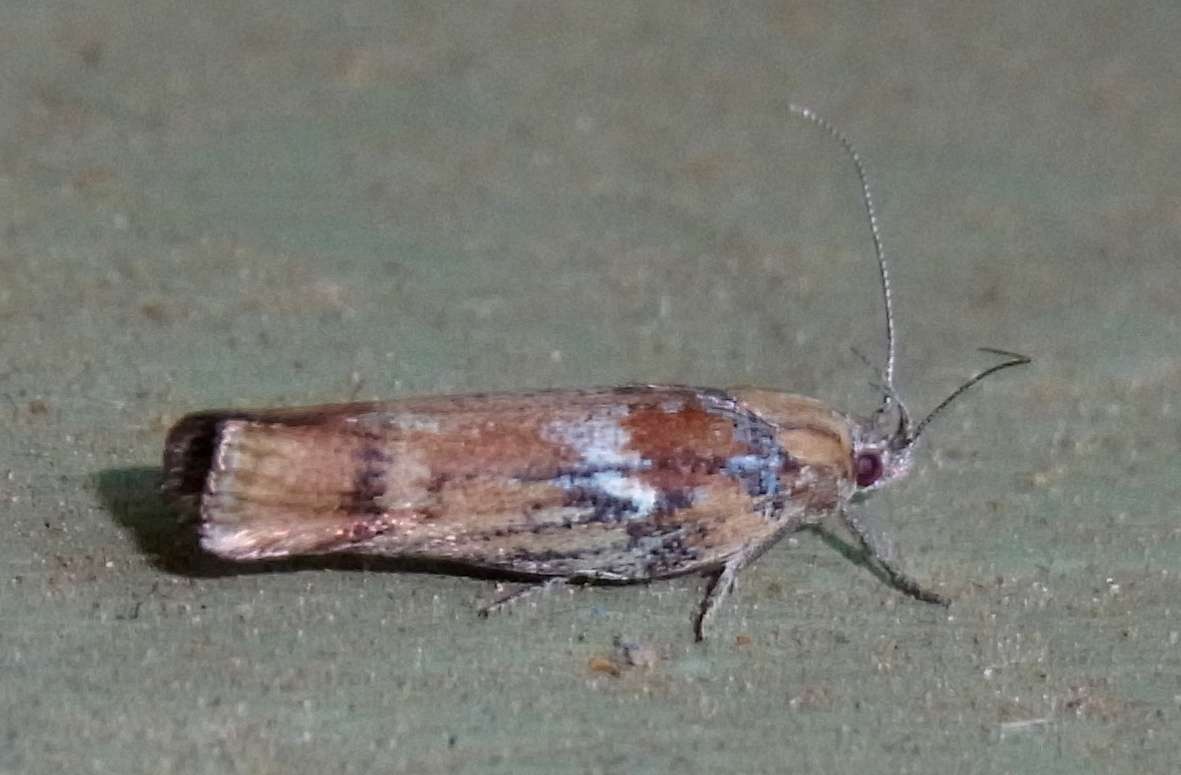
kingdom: Animalia
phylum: Arthropoda
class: Insecta
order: Lepidoptera
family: Xyloryctidae
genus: Catoryctis
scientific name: Catoryctis leucomerata
